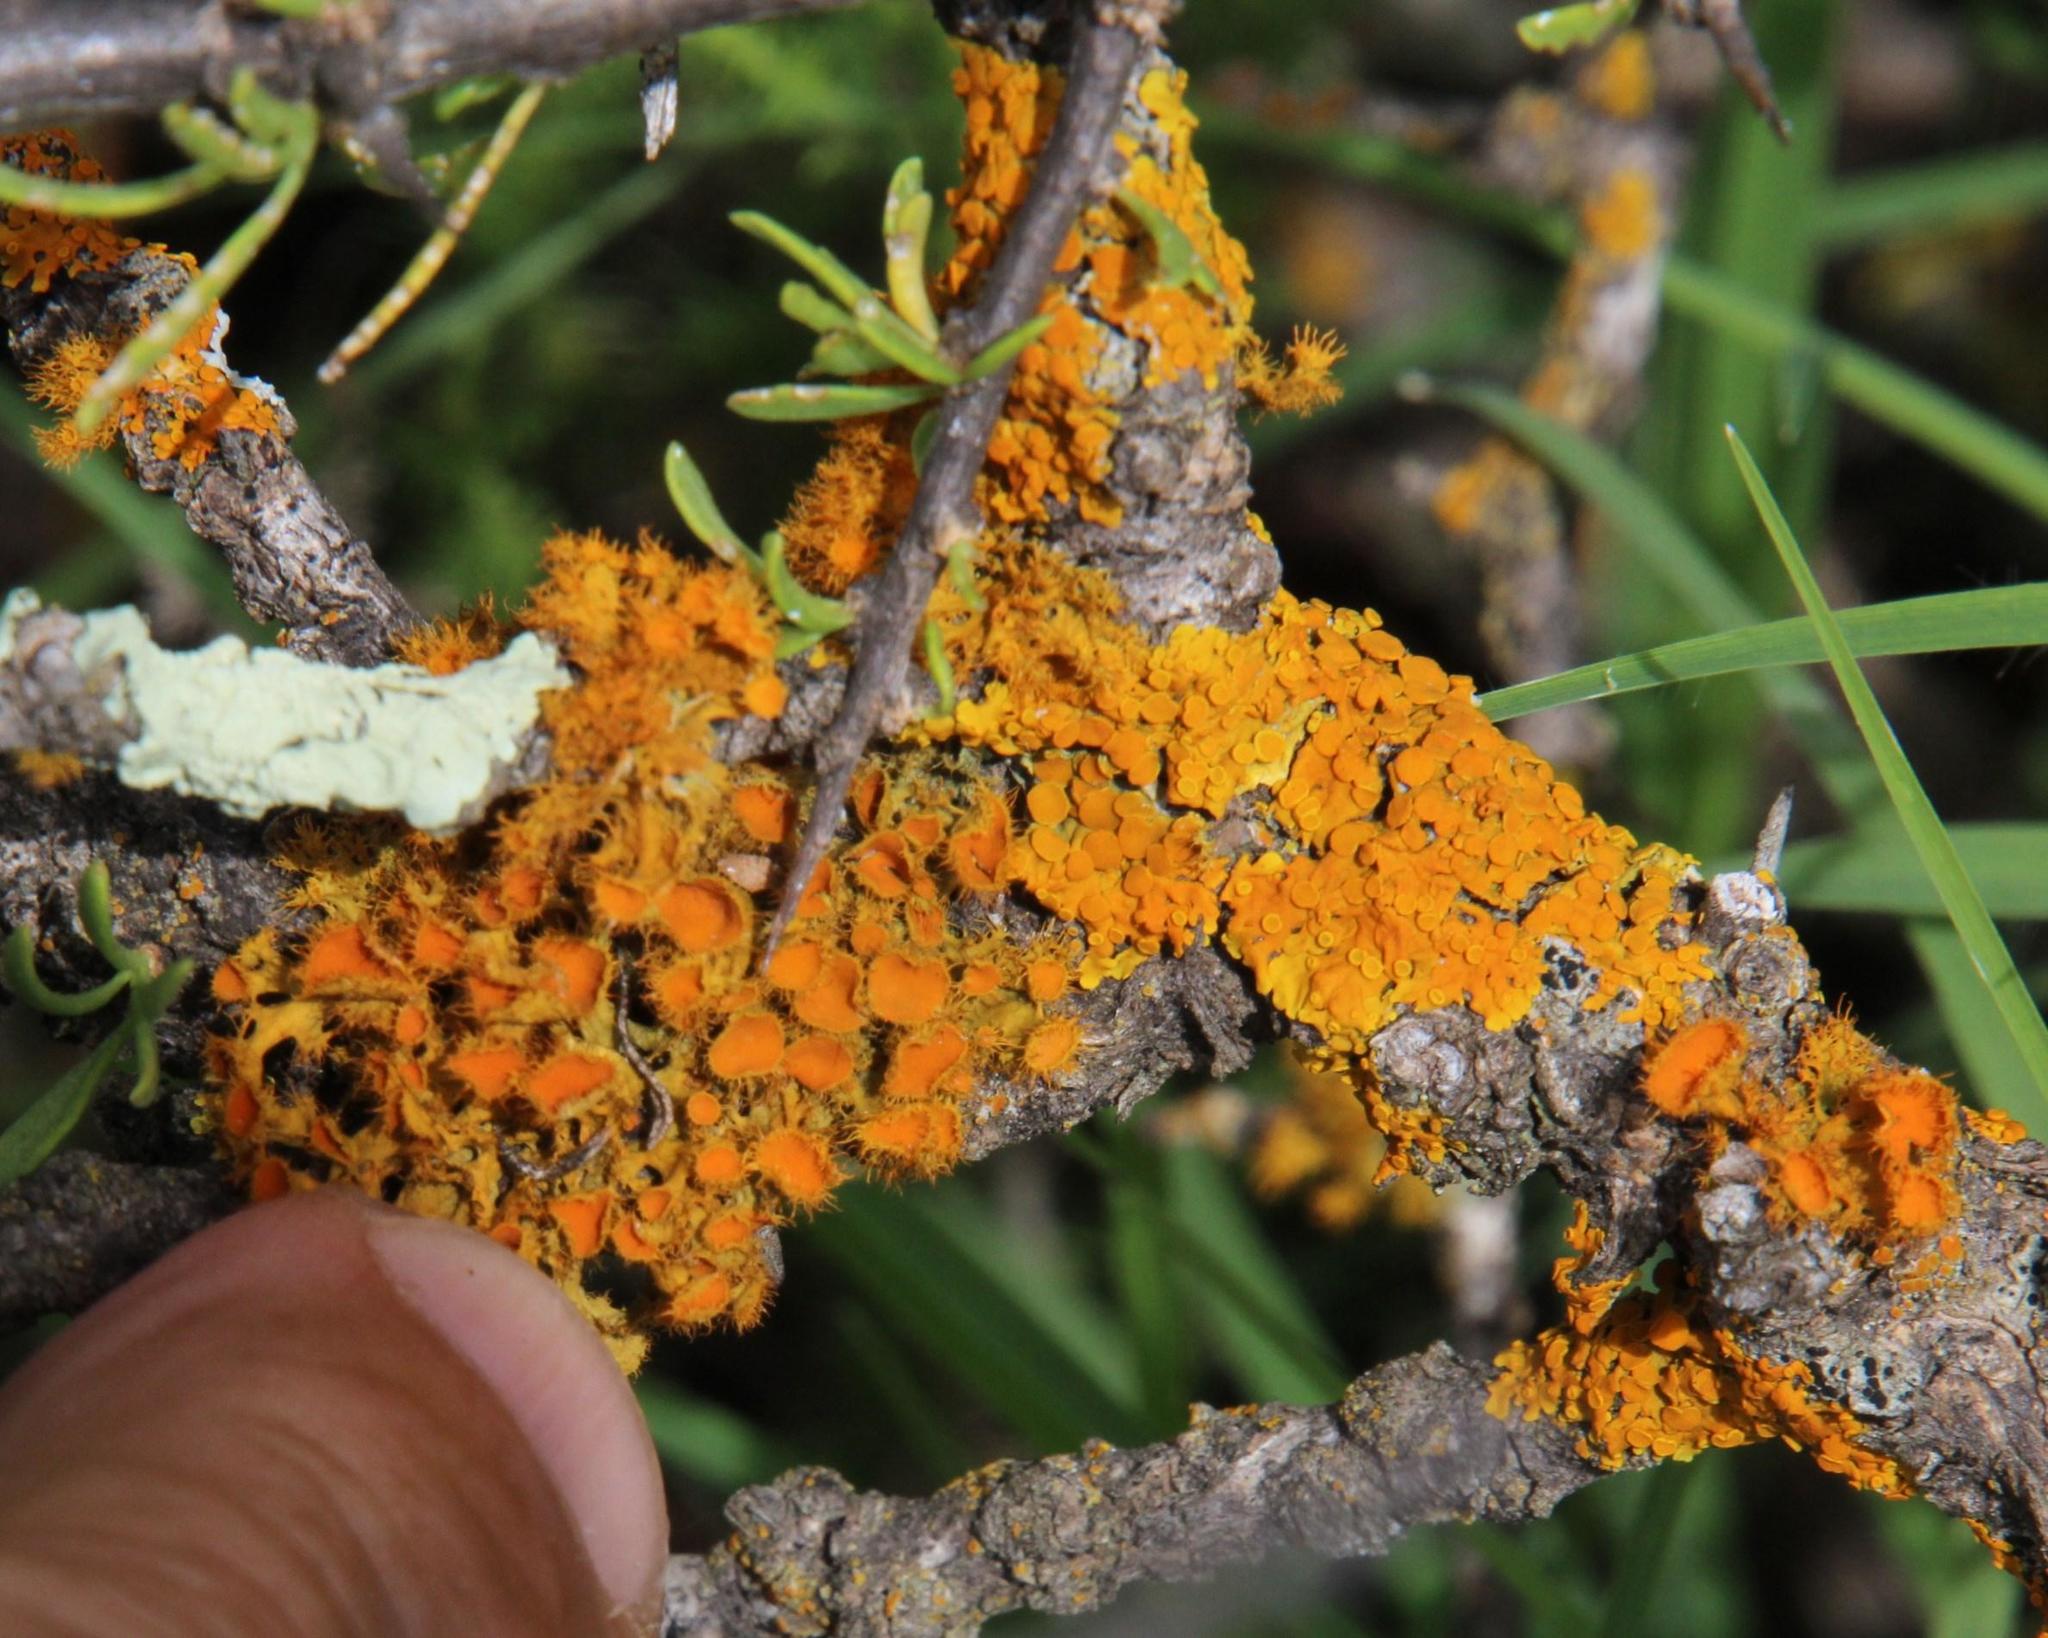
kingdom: Fungi
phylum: Ascomycota
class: Lecanoromycetes
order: Teloschistales
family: Teloschistaceae
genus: Niorma
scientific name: Niorma chrysophthalma
